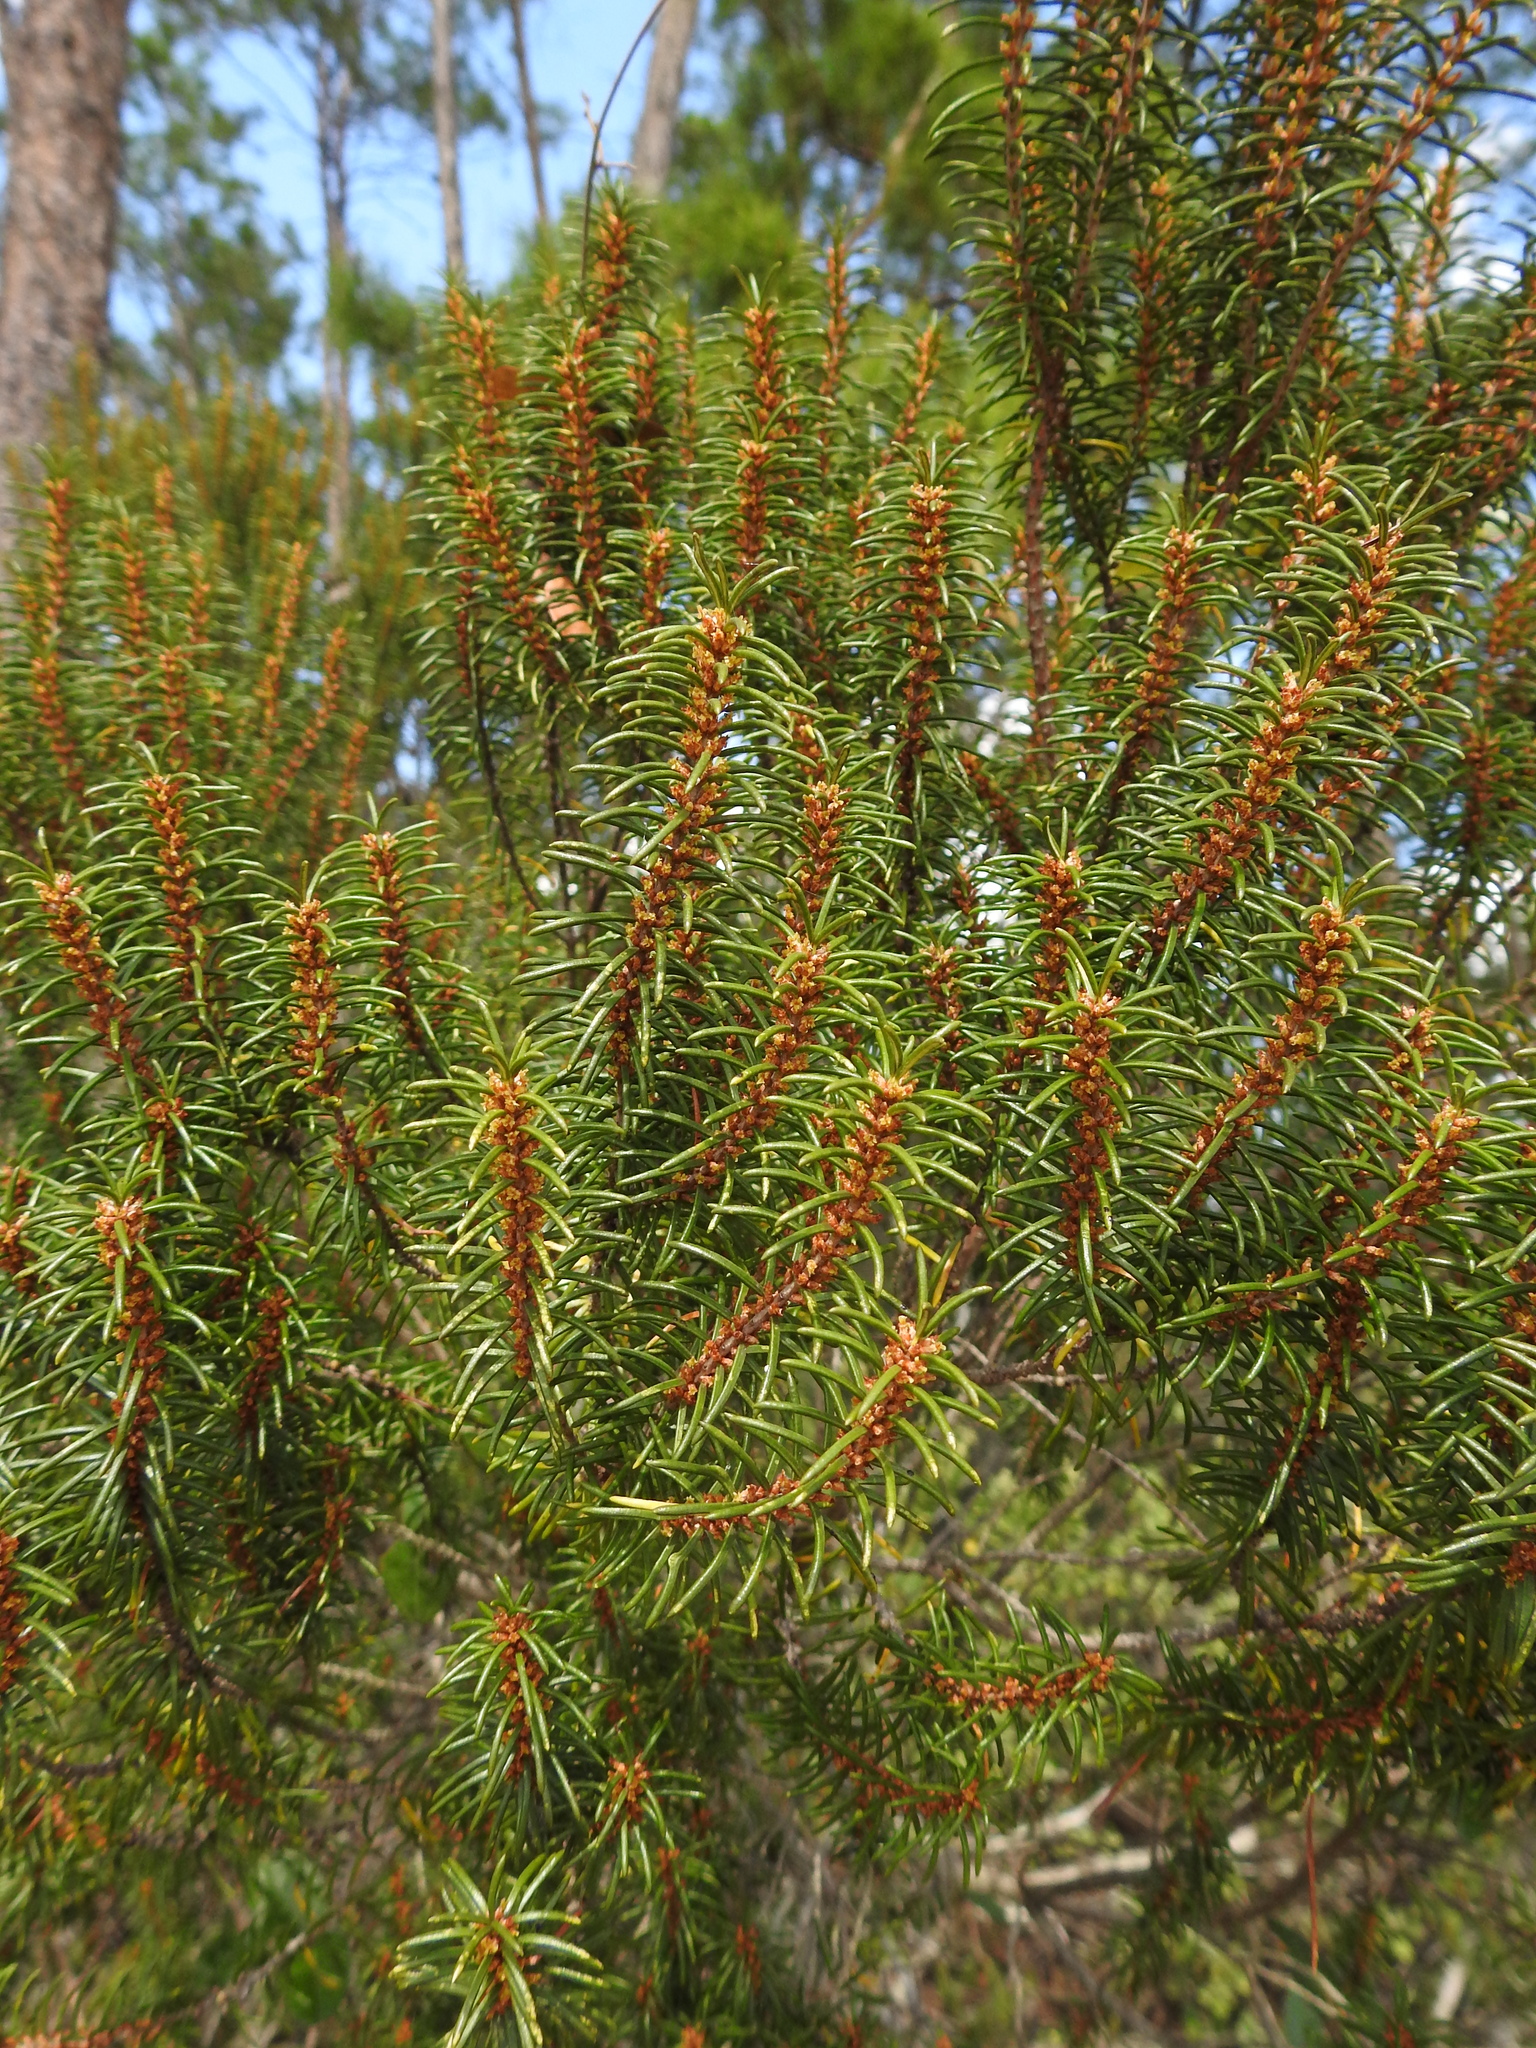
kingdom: Plantae
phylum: Tracheophyta
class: Magnoliopsida
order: Ericales
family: Ericaceae
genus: Ceratiola
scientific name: Ceratiola ericoides
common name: Sandhill-rosemary
